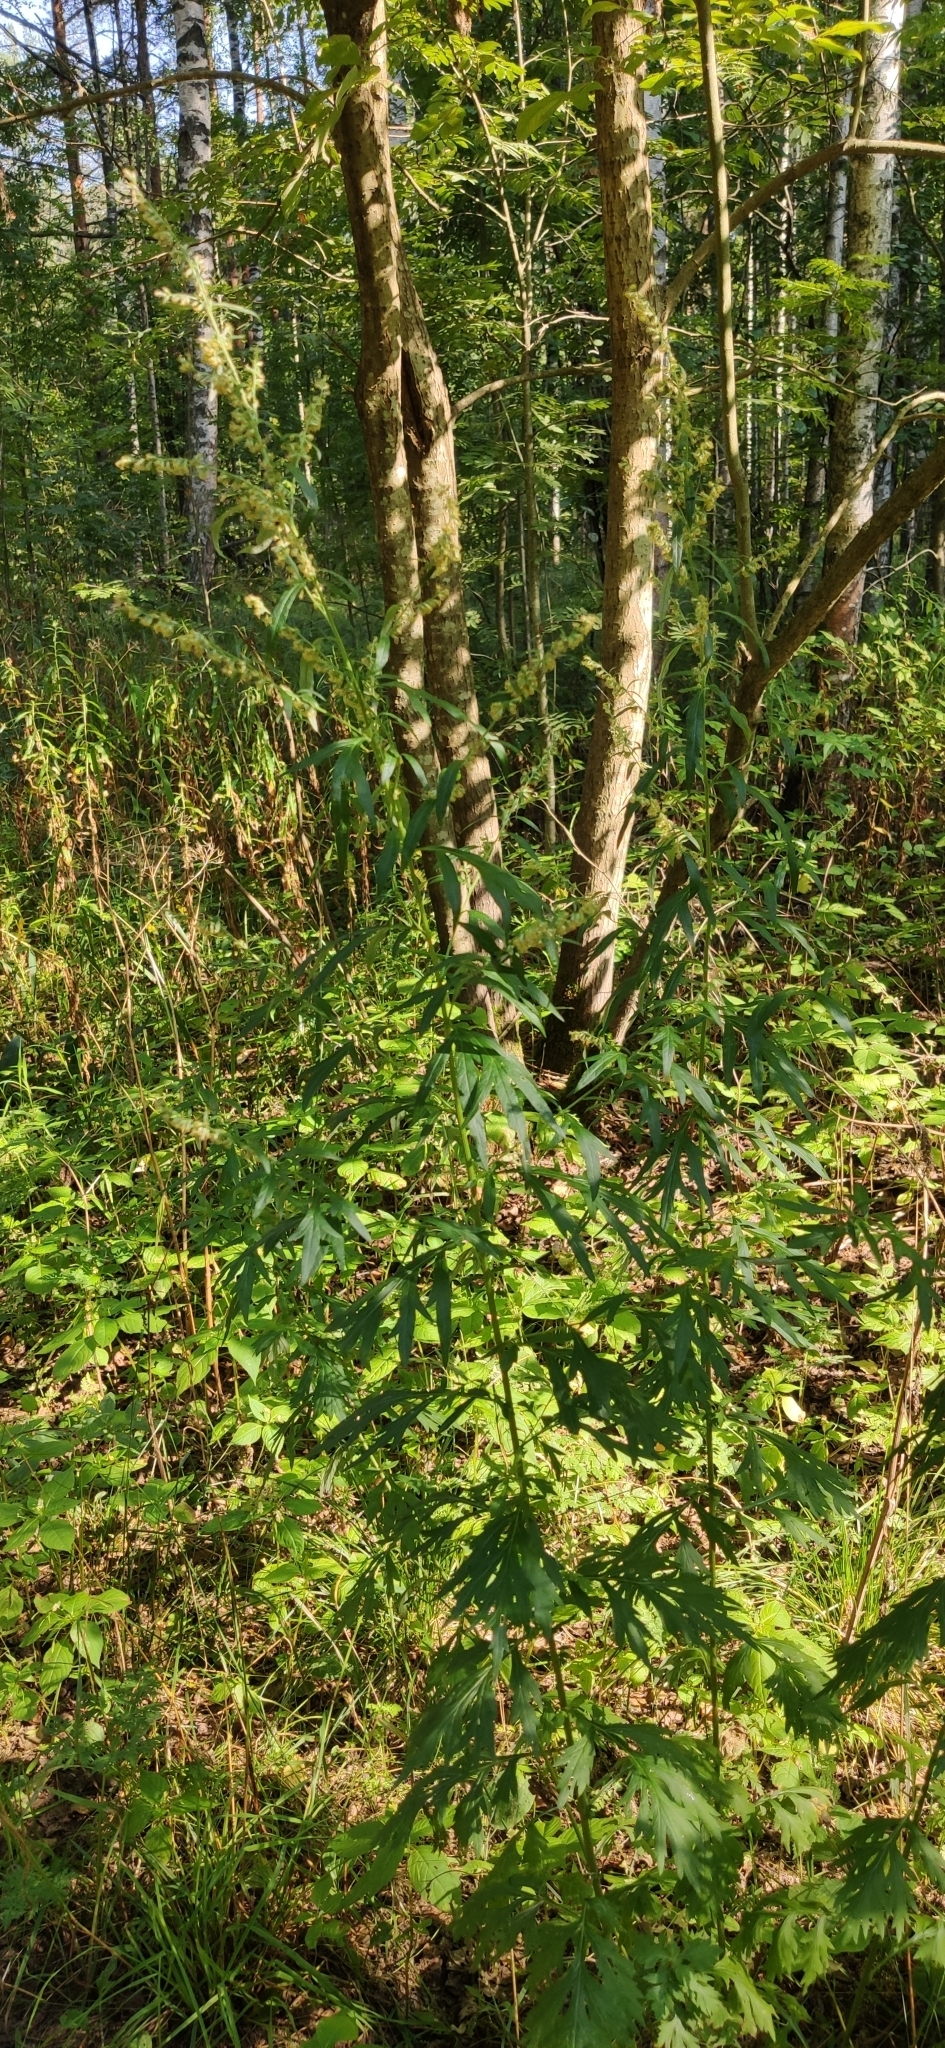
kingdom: Plantae
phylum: Tracheophyta
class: Magnoliopsida
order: Asterales
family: Asteraceae
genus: Artemisia
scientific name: Artemisia vulgaris
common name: Mugwort
